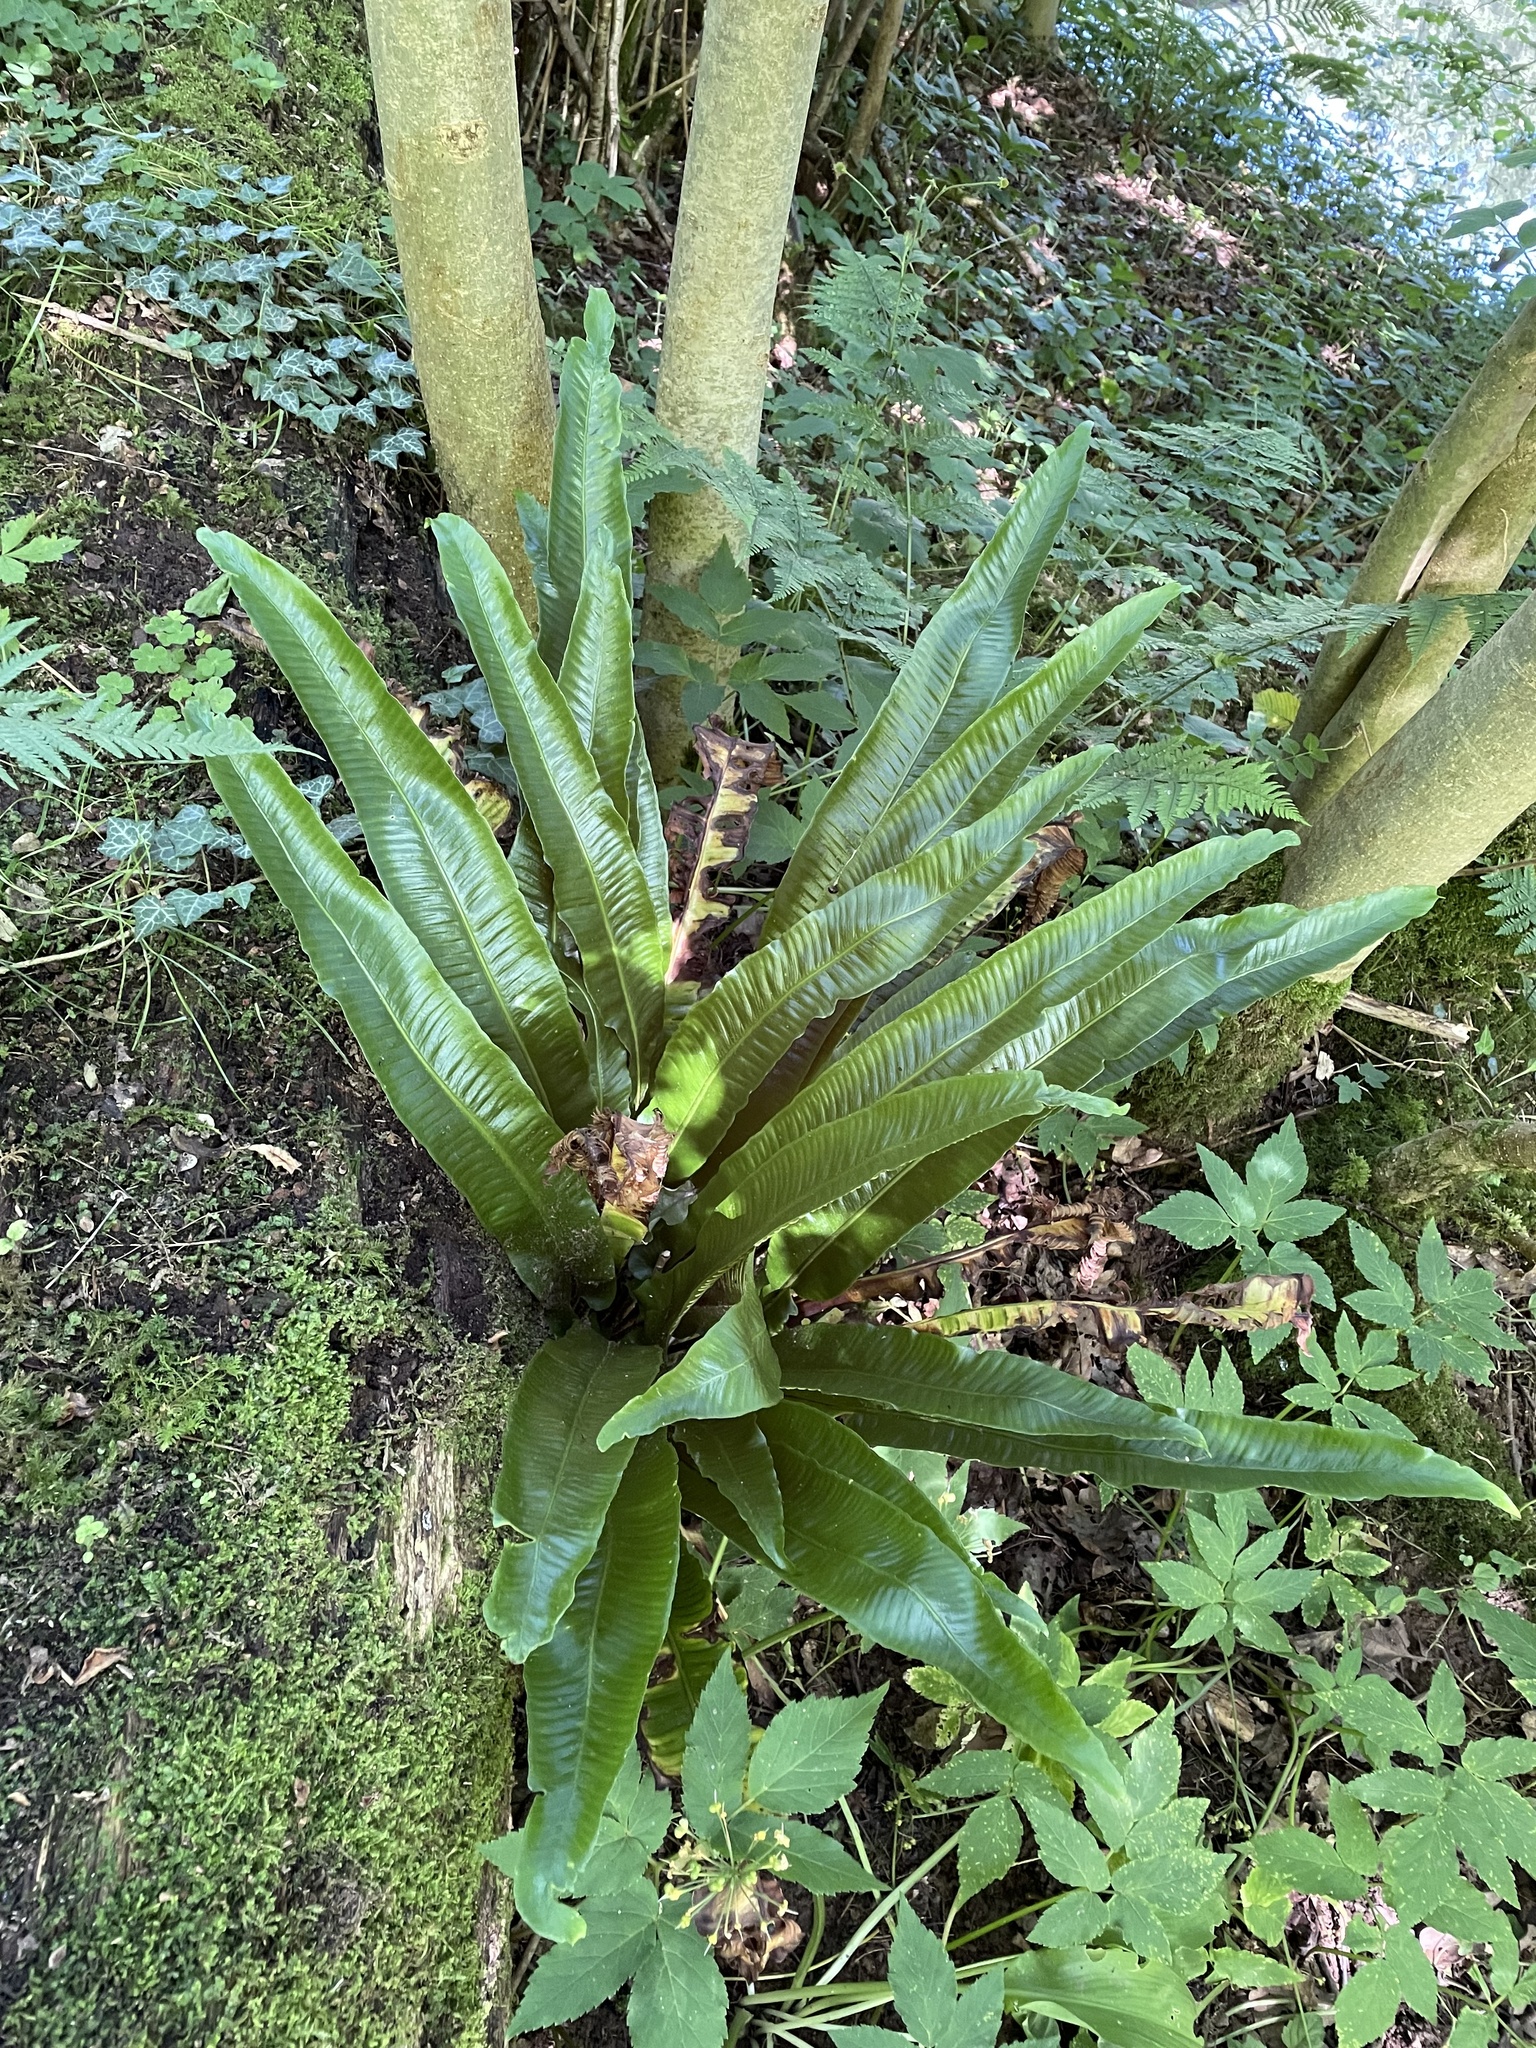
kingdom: Plantae
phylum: Tracheophyta
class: Polypodiopsida
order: Polypodiales
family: Aspleniaceae
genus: Asplenium
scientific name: Asplenium scolopendrium
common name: Hart's-tongue fern
